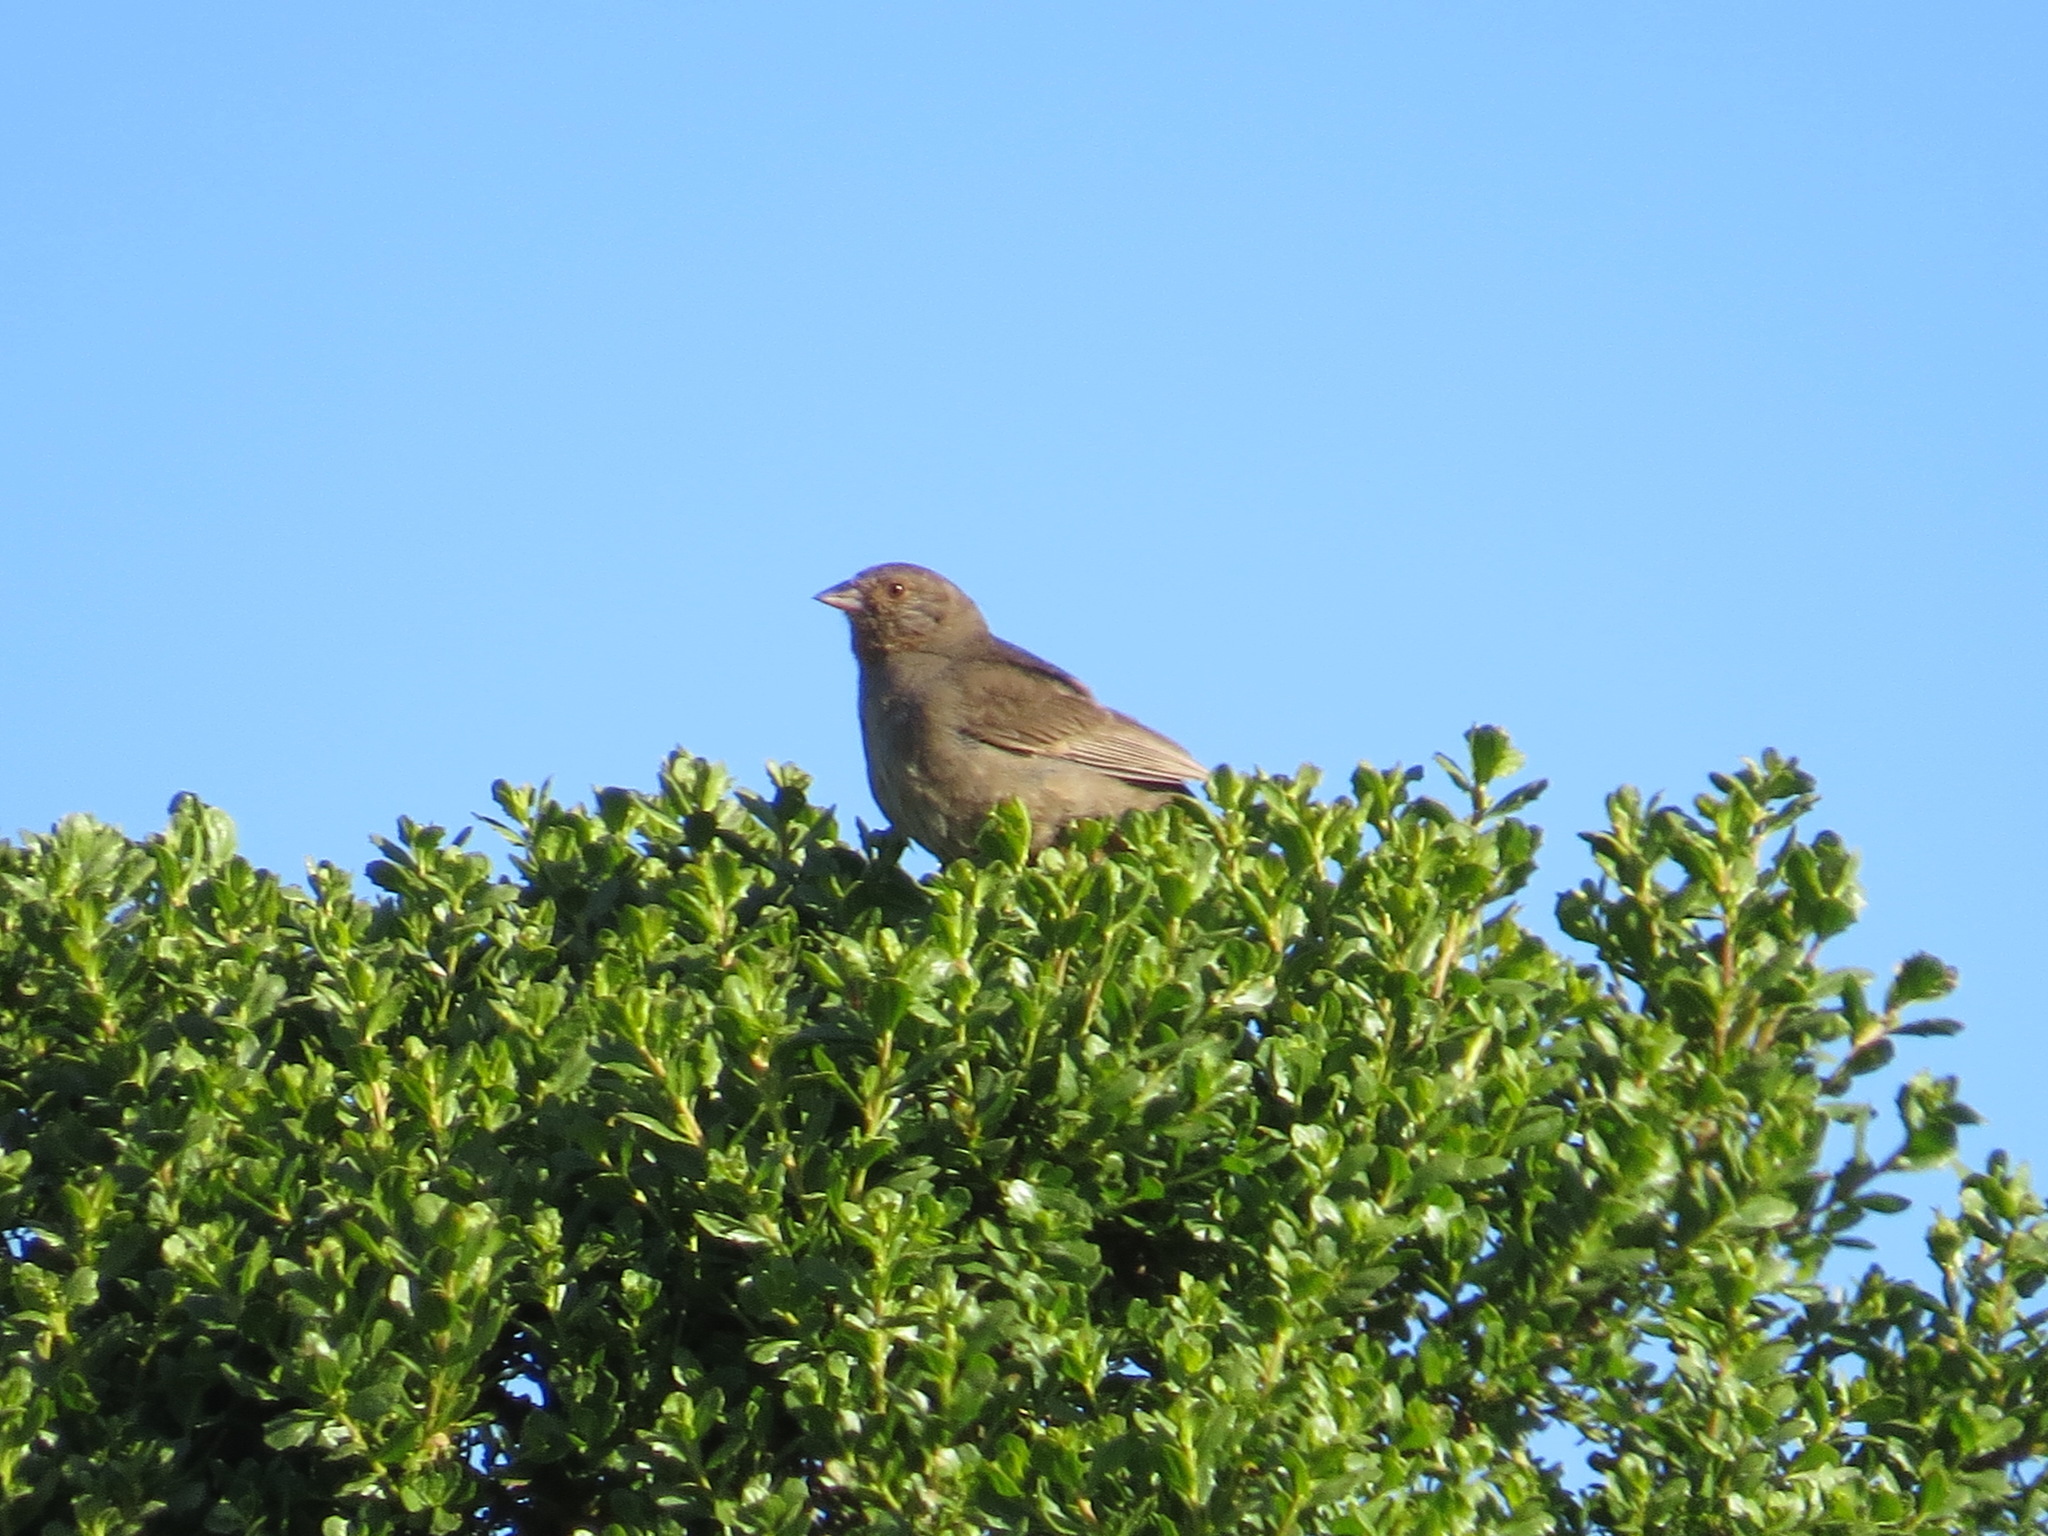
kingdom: Animalia
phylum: Chordata
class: Aves
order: Passeriformes
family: Passerellidae
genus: Melozone
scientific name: Melozone crissalis
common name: California towhee
